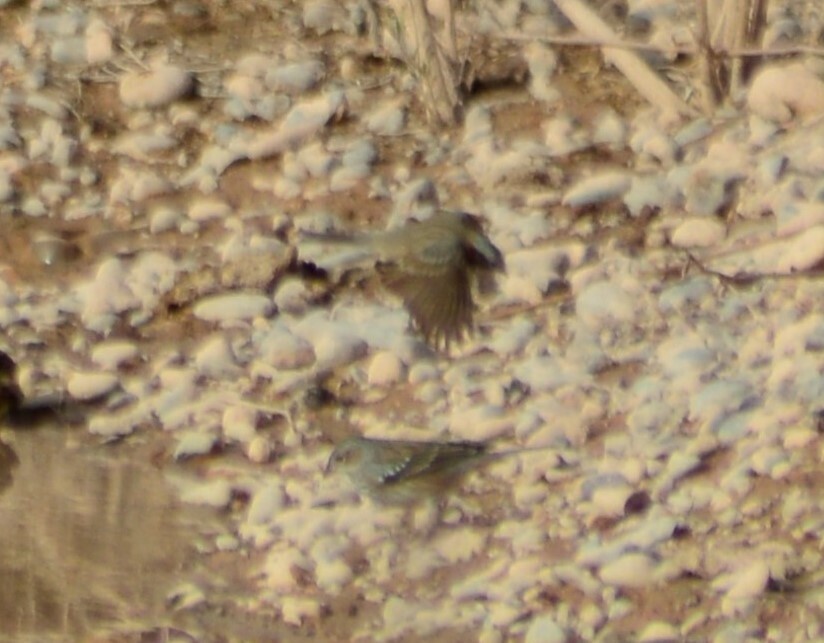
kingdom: Animalia
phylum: Chordata
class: Aves
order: Passeriformes
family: Thraupidae
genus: Rhopospina
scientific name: Rhopospina fruticeti
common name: Mourning sierra finch
